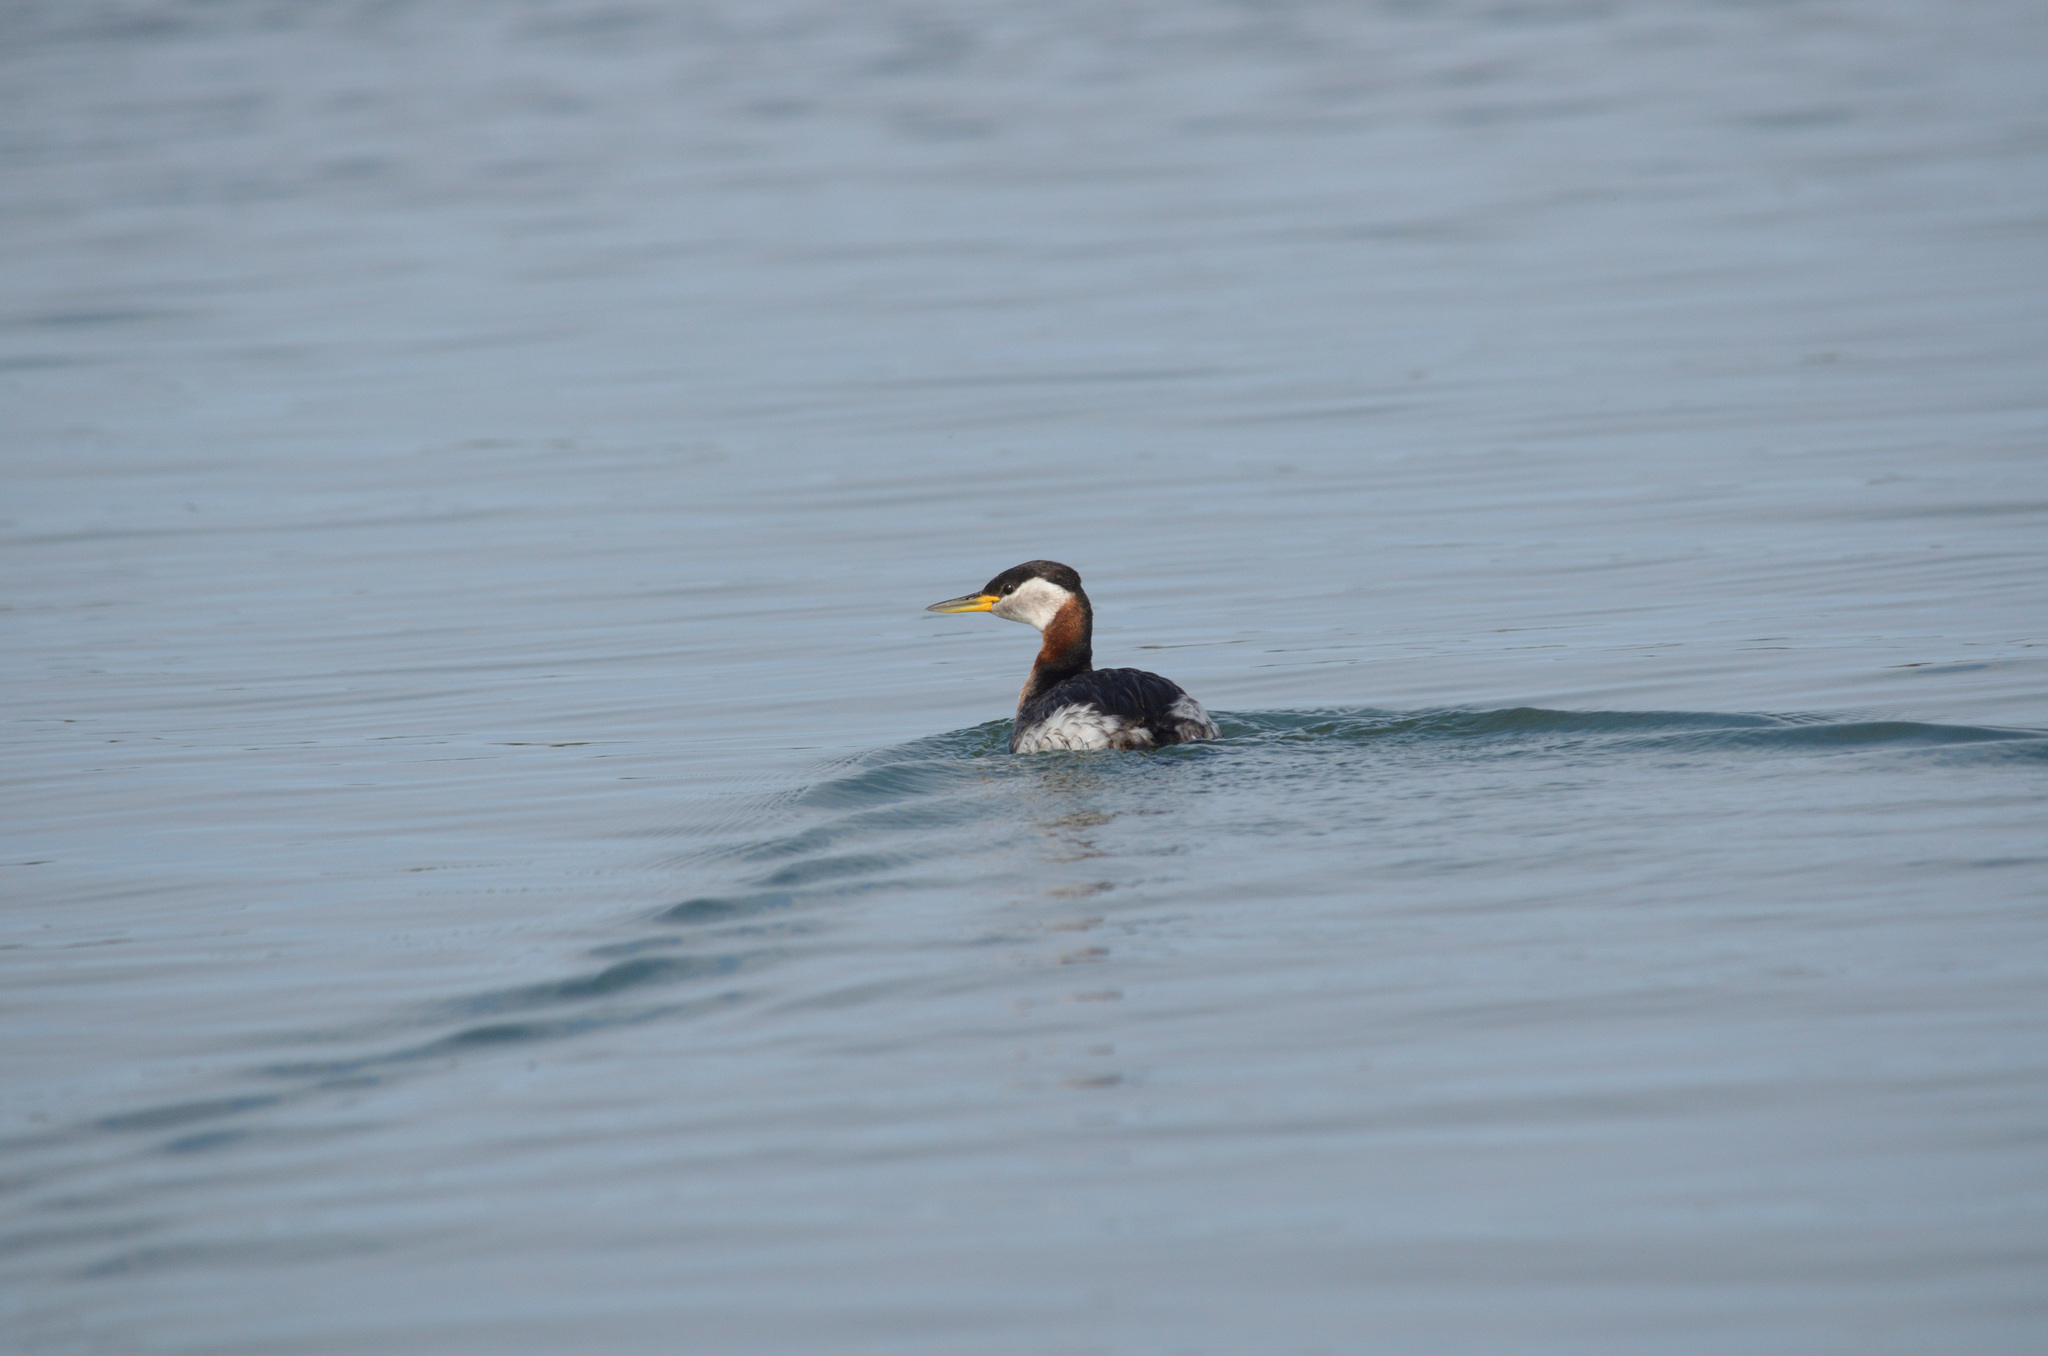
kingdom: Animalia
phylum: Chordata
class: Aves
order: Podicipediformes
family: Podicipedidae
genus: Podiceps
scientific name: Podiceps grisegena
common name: Red-necked grebe
